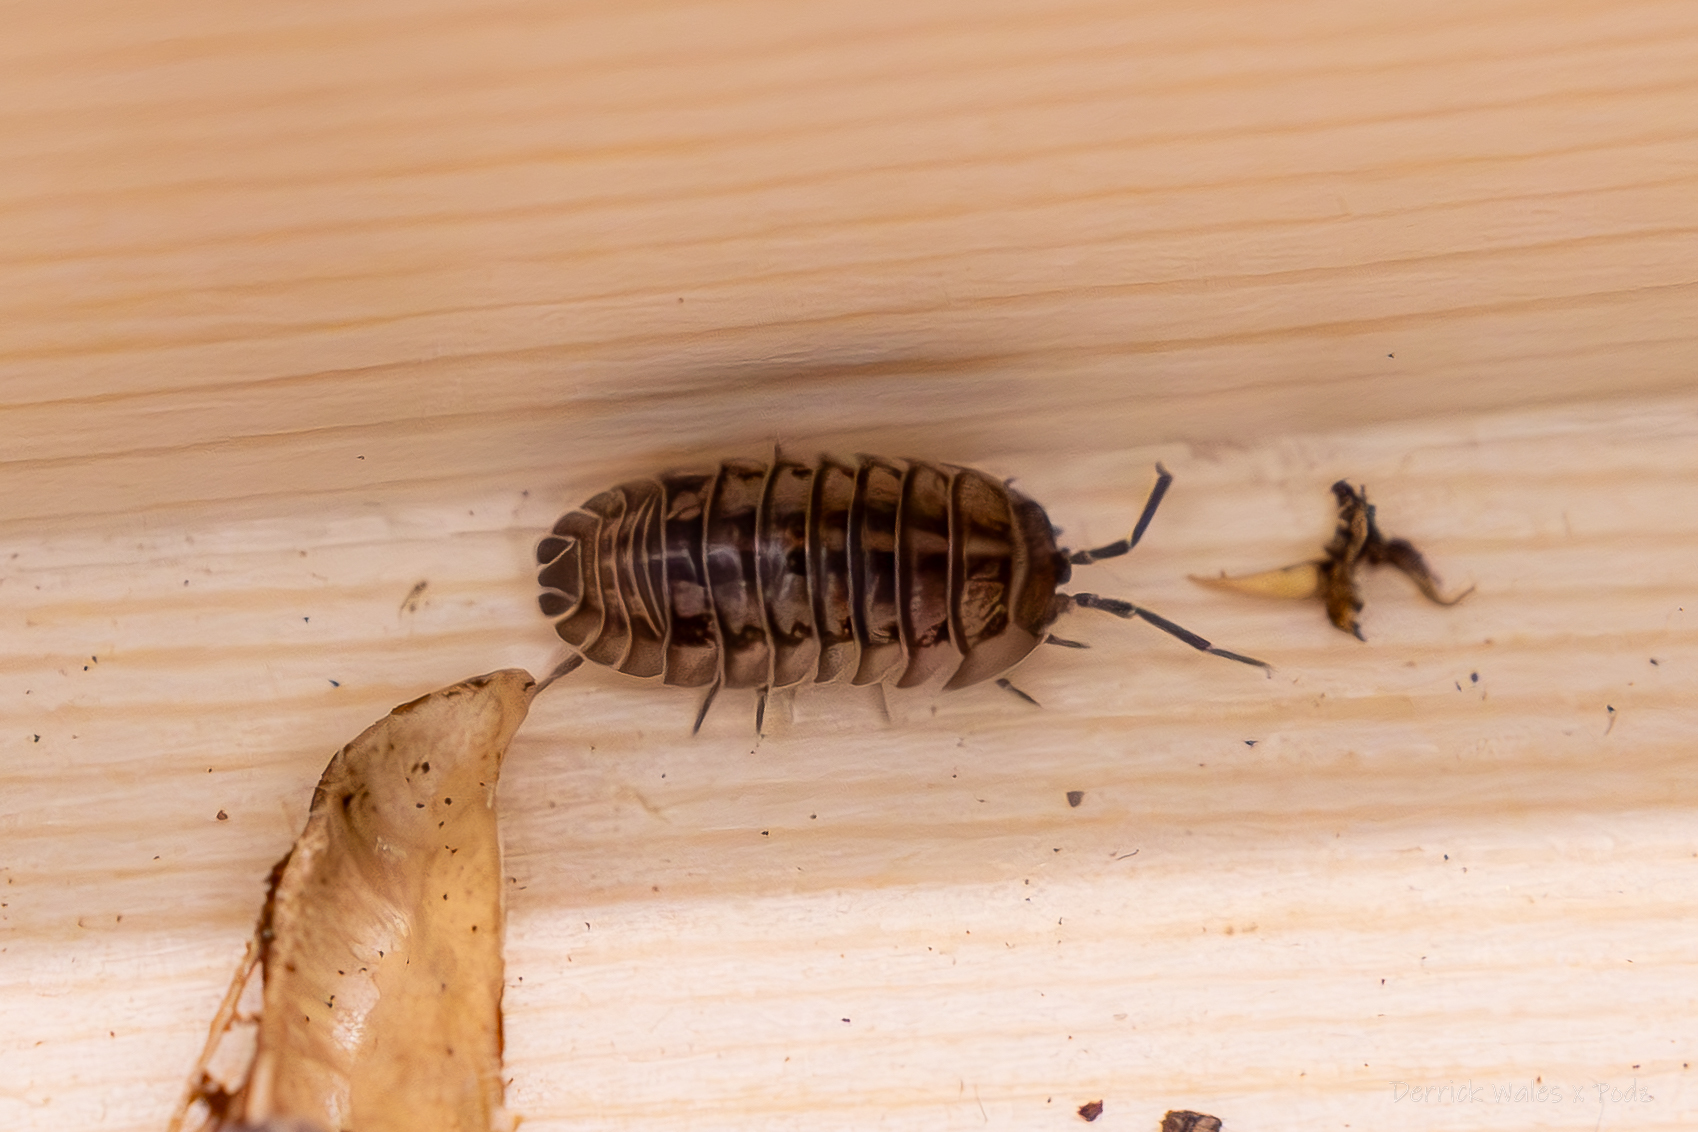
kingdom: Animalia
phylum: Arthropoda
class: Malacostraca
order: Isopoda
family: Armadillidiidae
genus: Armadillidium
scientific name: Armadillidium nasatum
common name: Isopod
